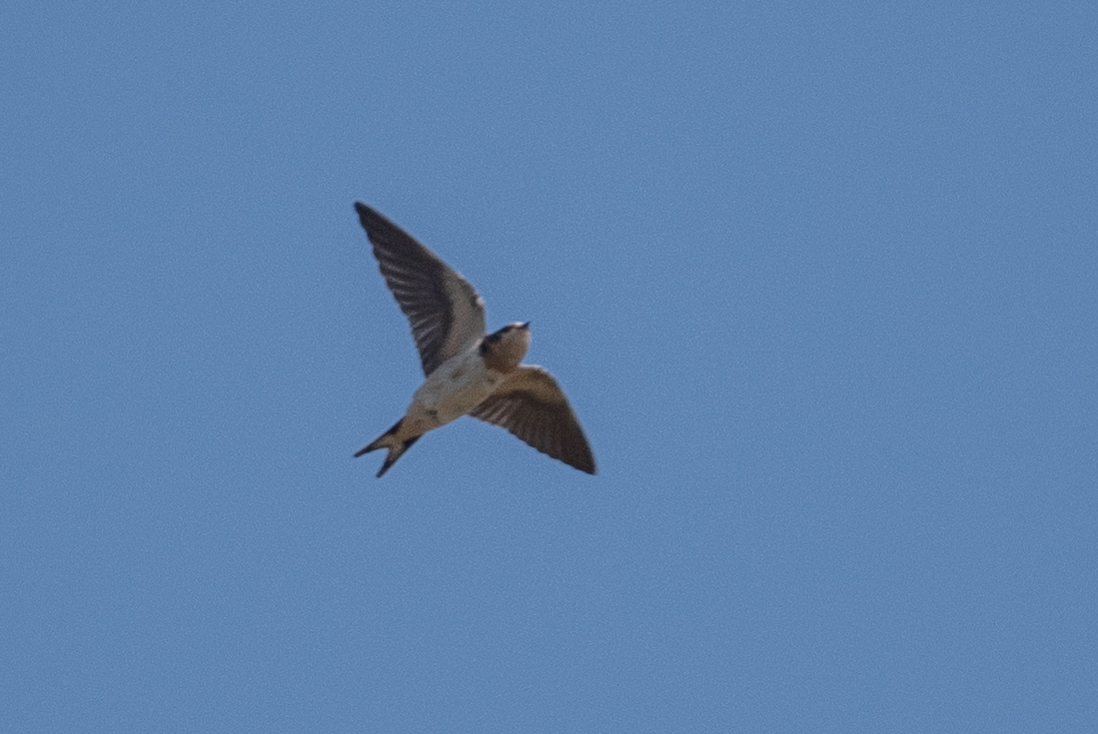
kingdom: Animalia
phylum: Chordata
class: Aves
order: Passeriformes
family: Hirundinidae
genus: Hirundo
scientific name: Hirundo rustica
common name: Barn swallow
